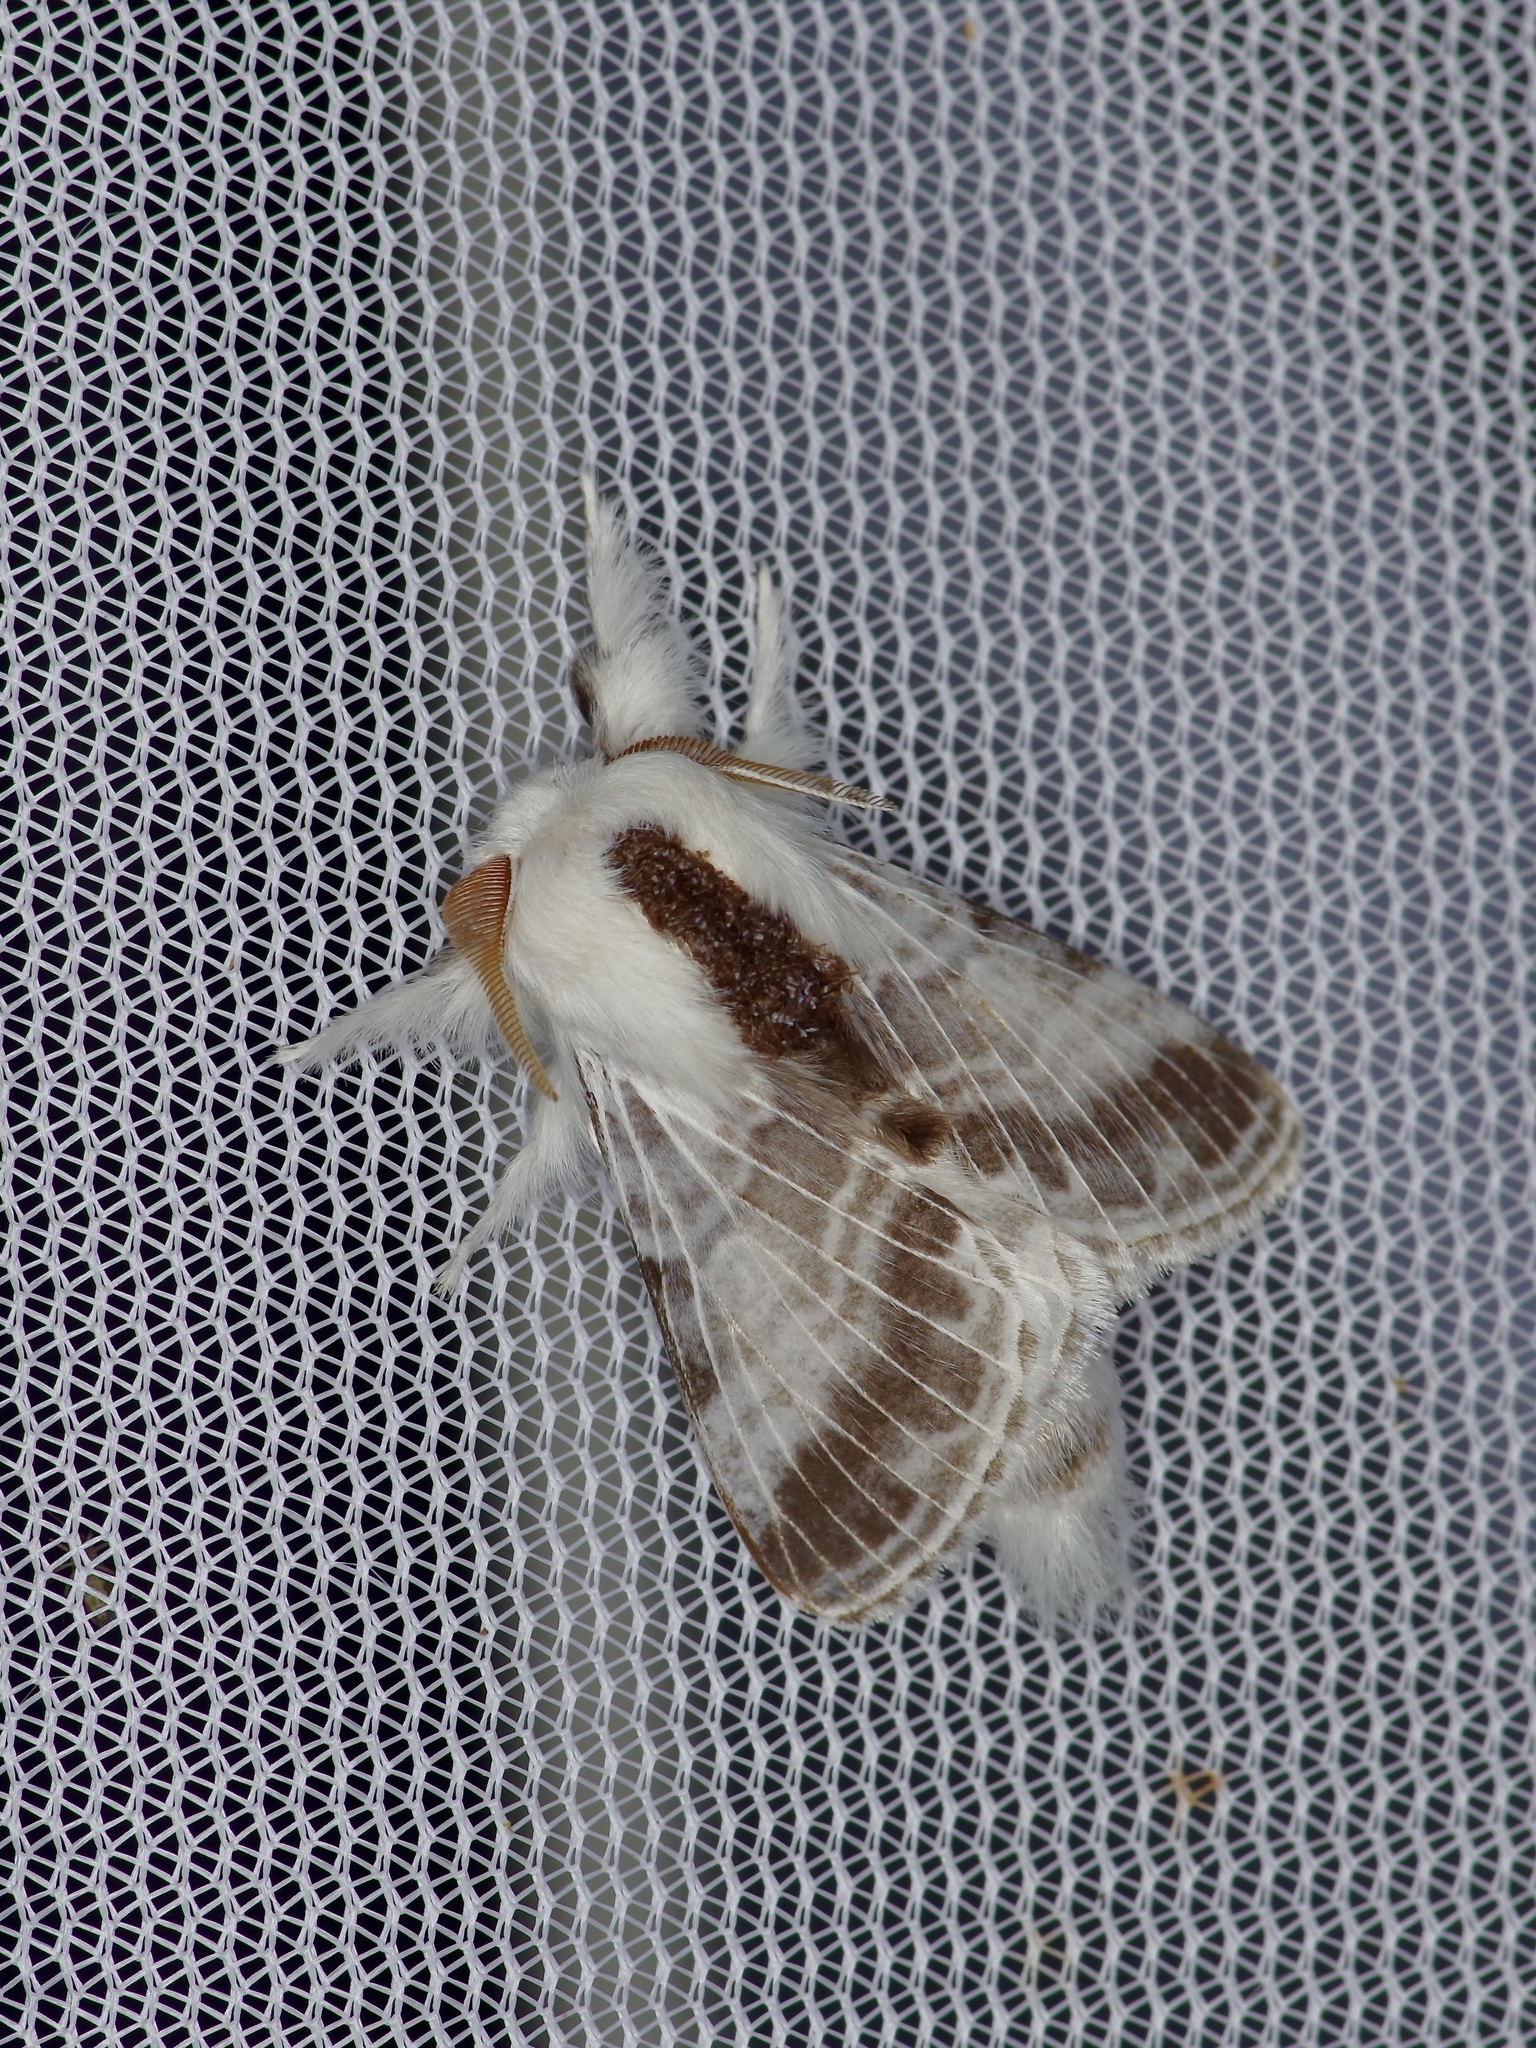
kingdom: Animalia
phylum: Arthropoda
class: Insecta
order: Lepidoptera
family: Lasiocampidae
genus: Tolype
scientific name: Tolype velleda
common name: Large tolype moth
